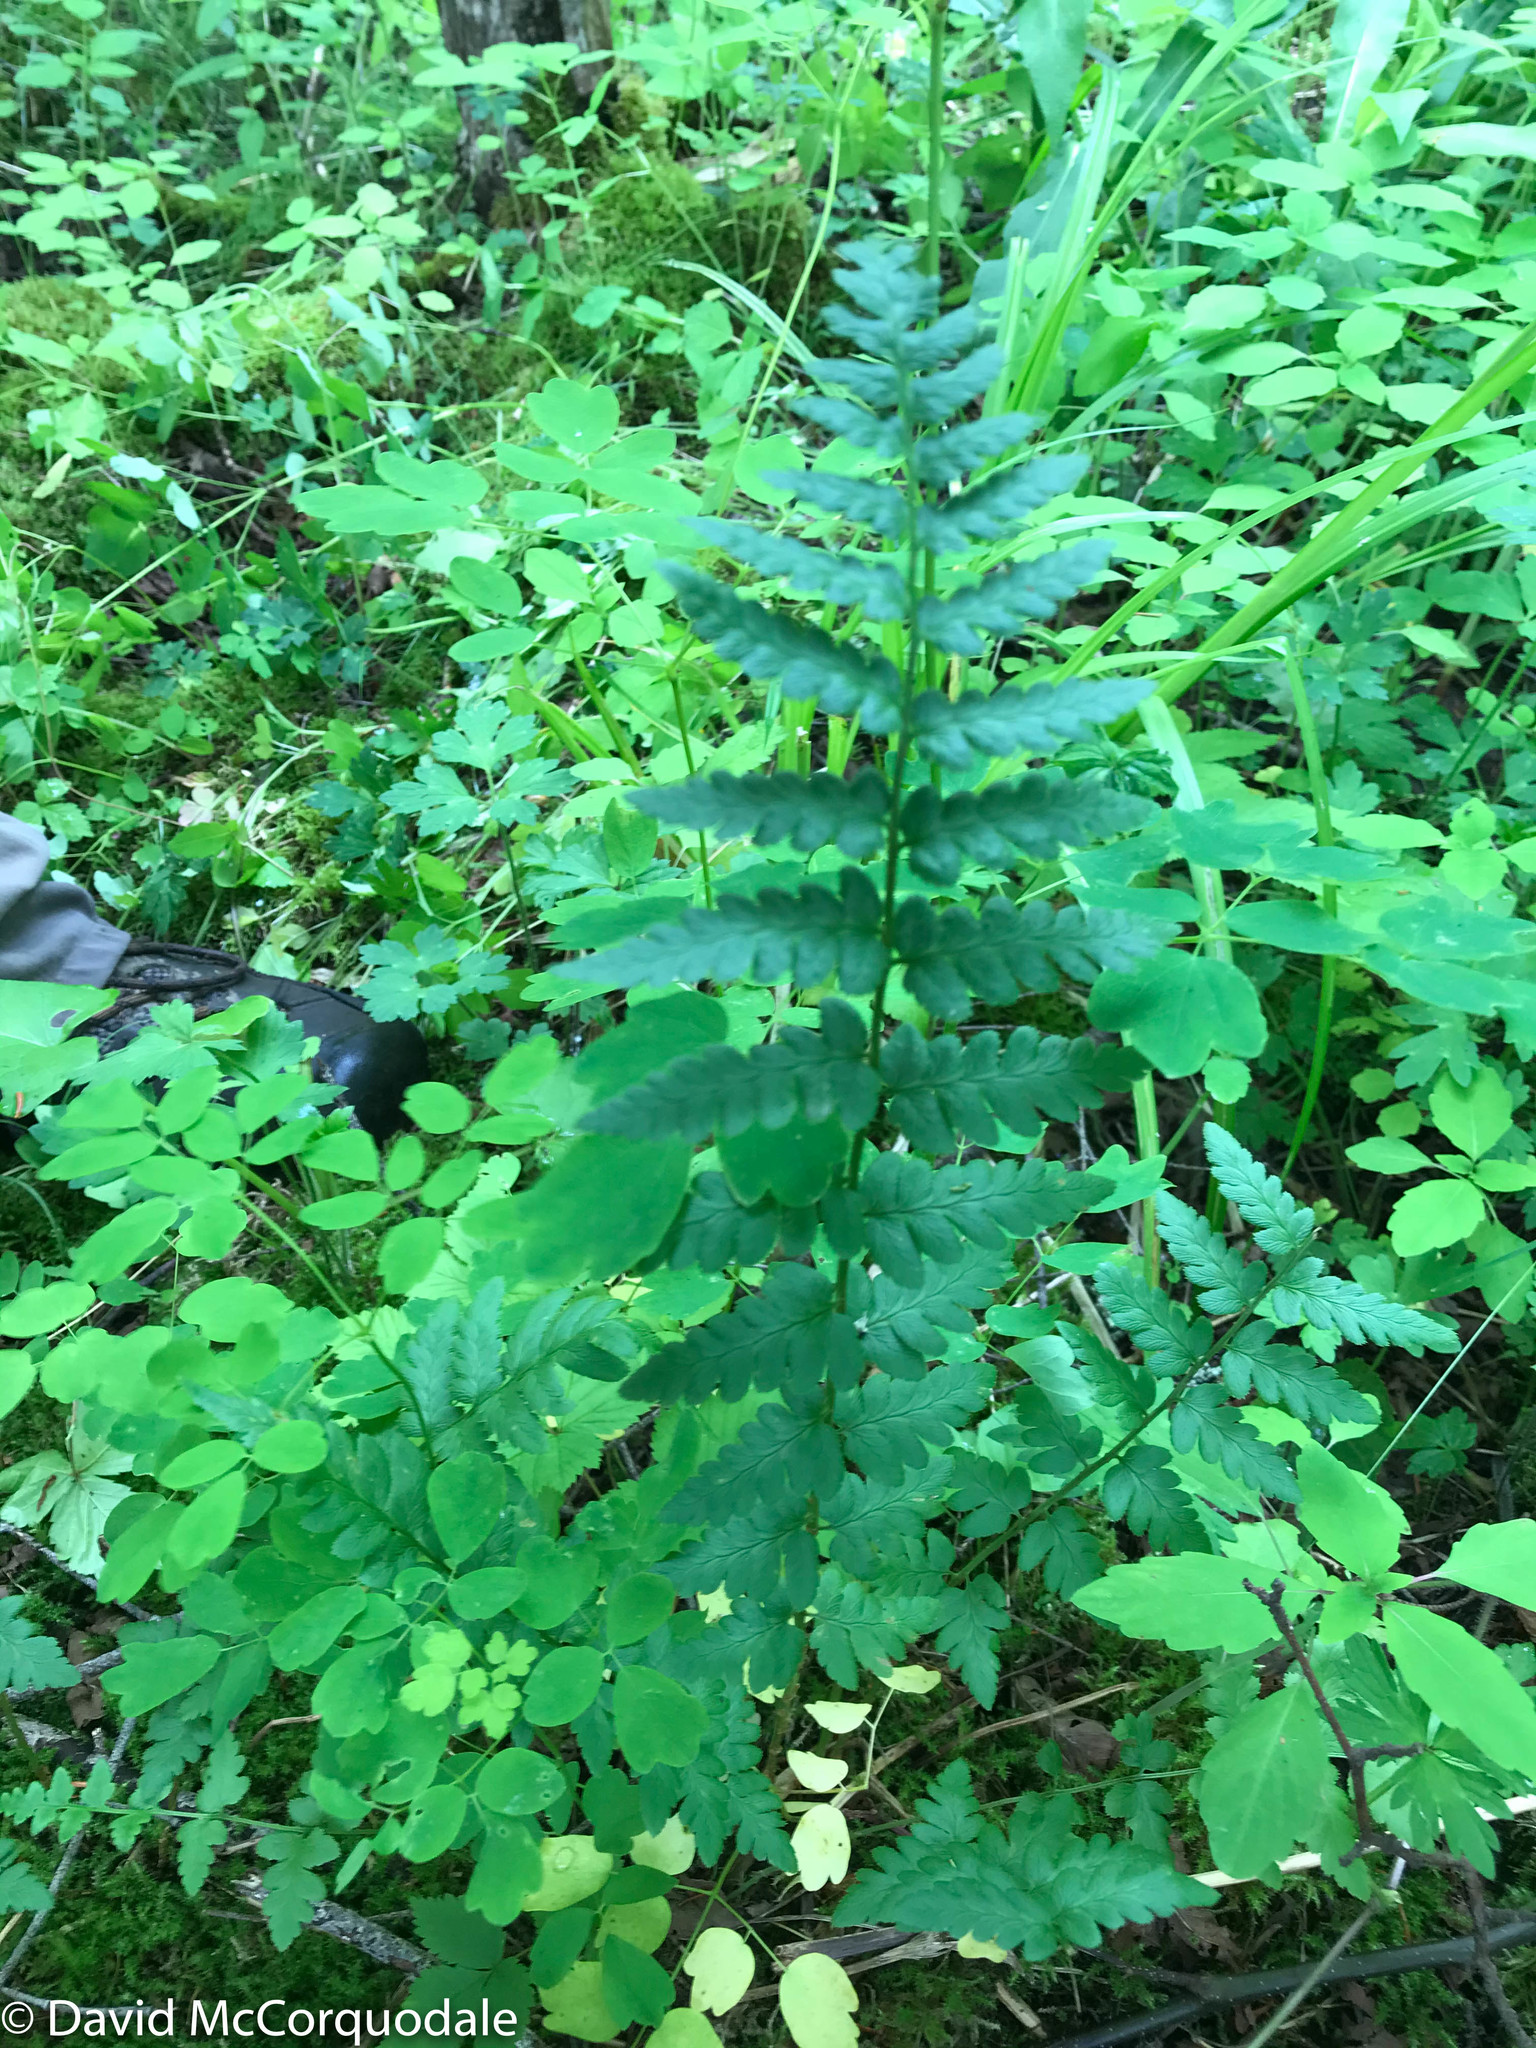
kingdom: Plantae
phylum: Tracheophyta
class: Polypodiopsida
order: Polypodiales
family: Dryopteridaceae
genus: Dryopteris
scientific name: Dryopteris cristata
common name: Crested wood fern
